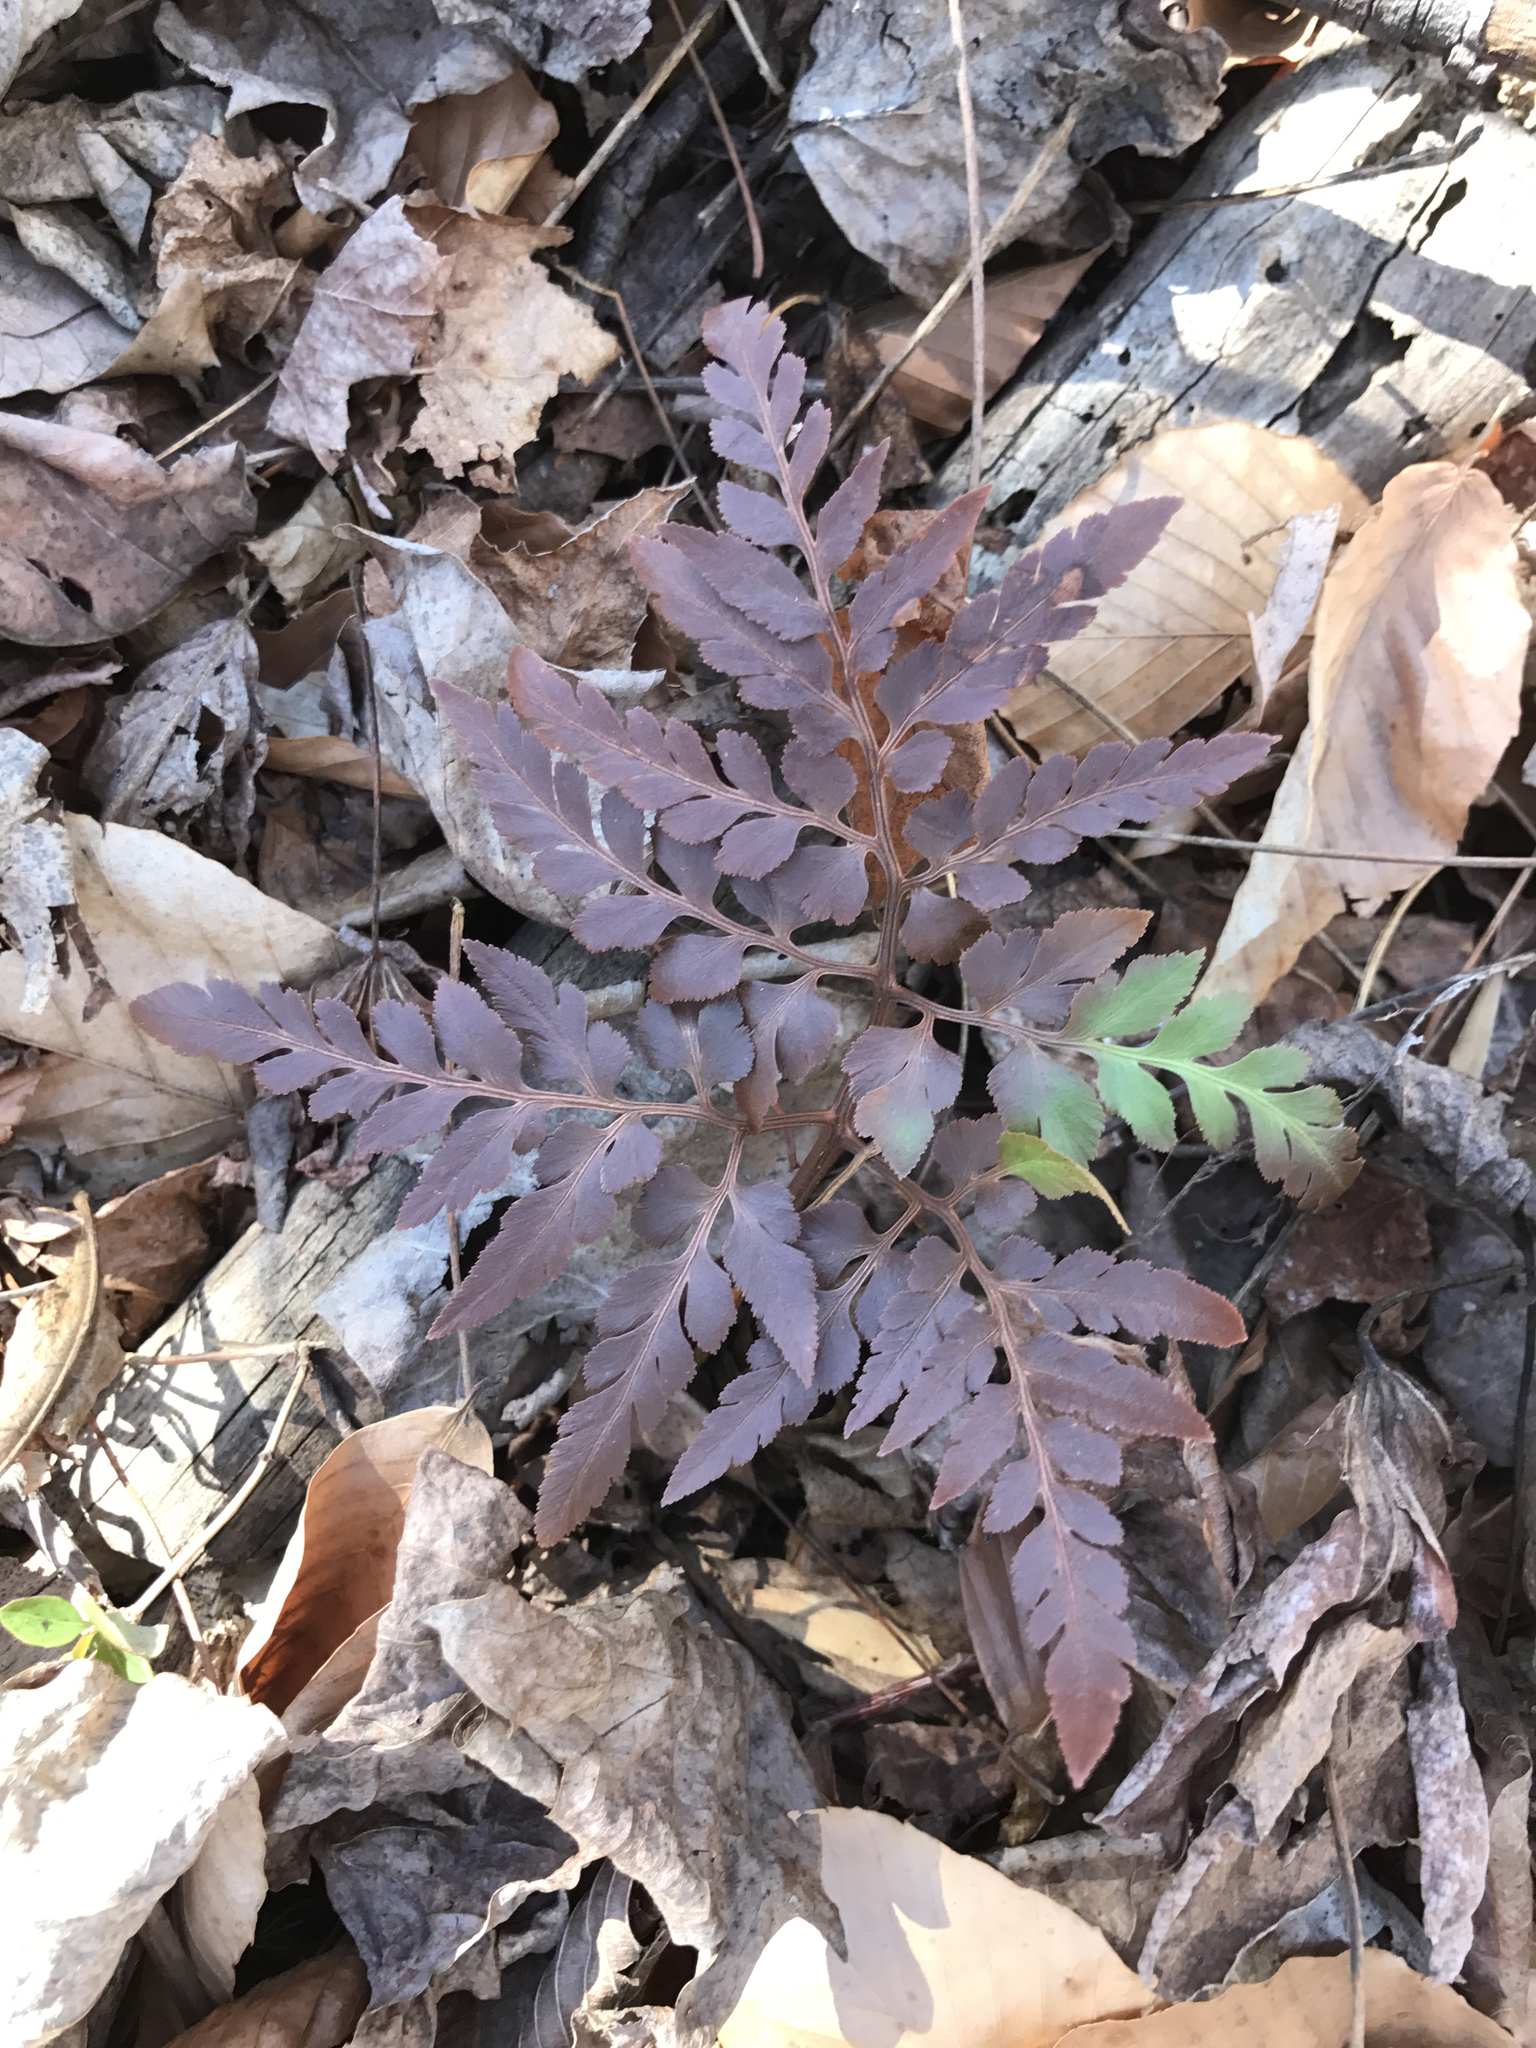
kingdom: Plantae
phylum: Tracheophyta
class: Polypodiopsida
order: Ophioglossales
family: Ophioglossaceae
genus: Sceptridium
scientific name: Sceptridium dissectum
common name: Cut-leaved grapefern
